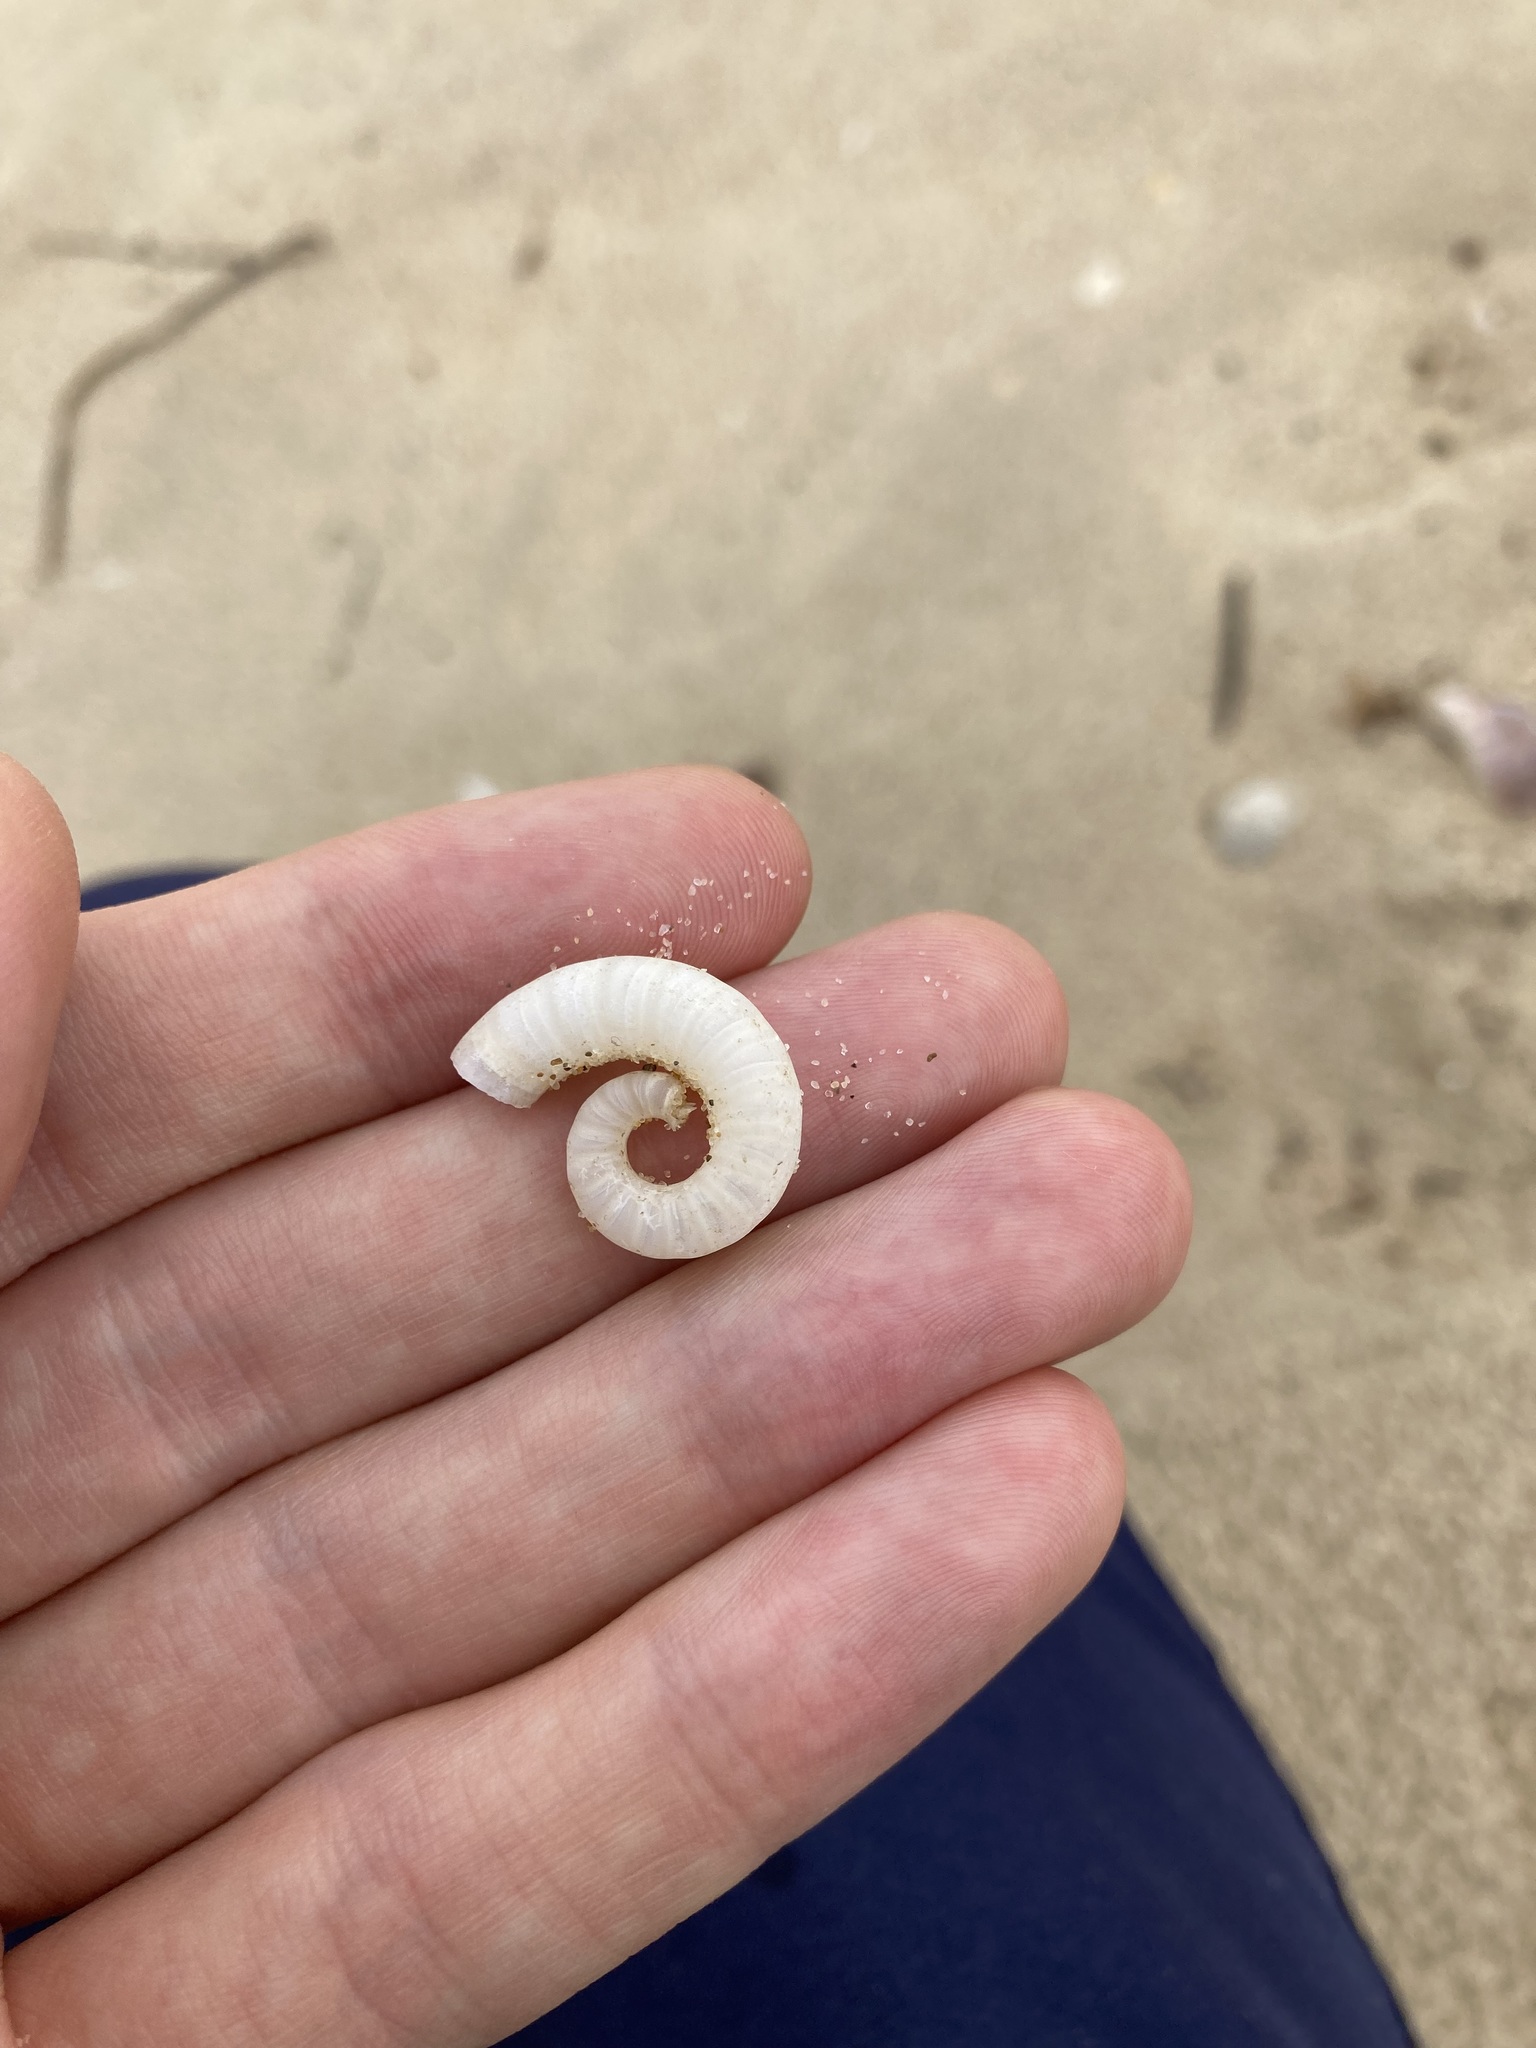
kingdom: Animalia
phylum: Mollusca
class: Cephalopoda
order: Spirulida
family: Spirulidae
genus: Spirula
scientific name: Spirula spirula
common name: Ram's horn squid
